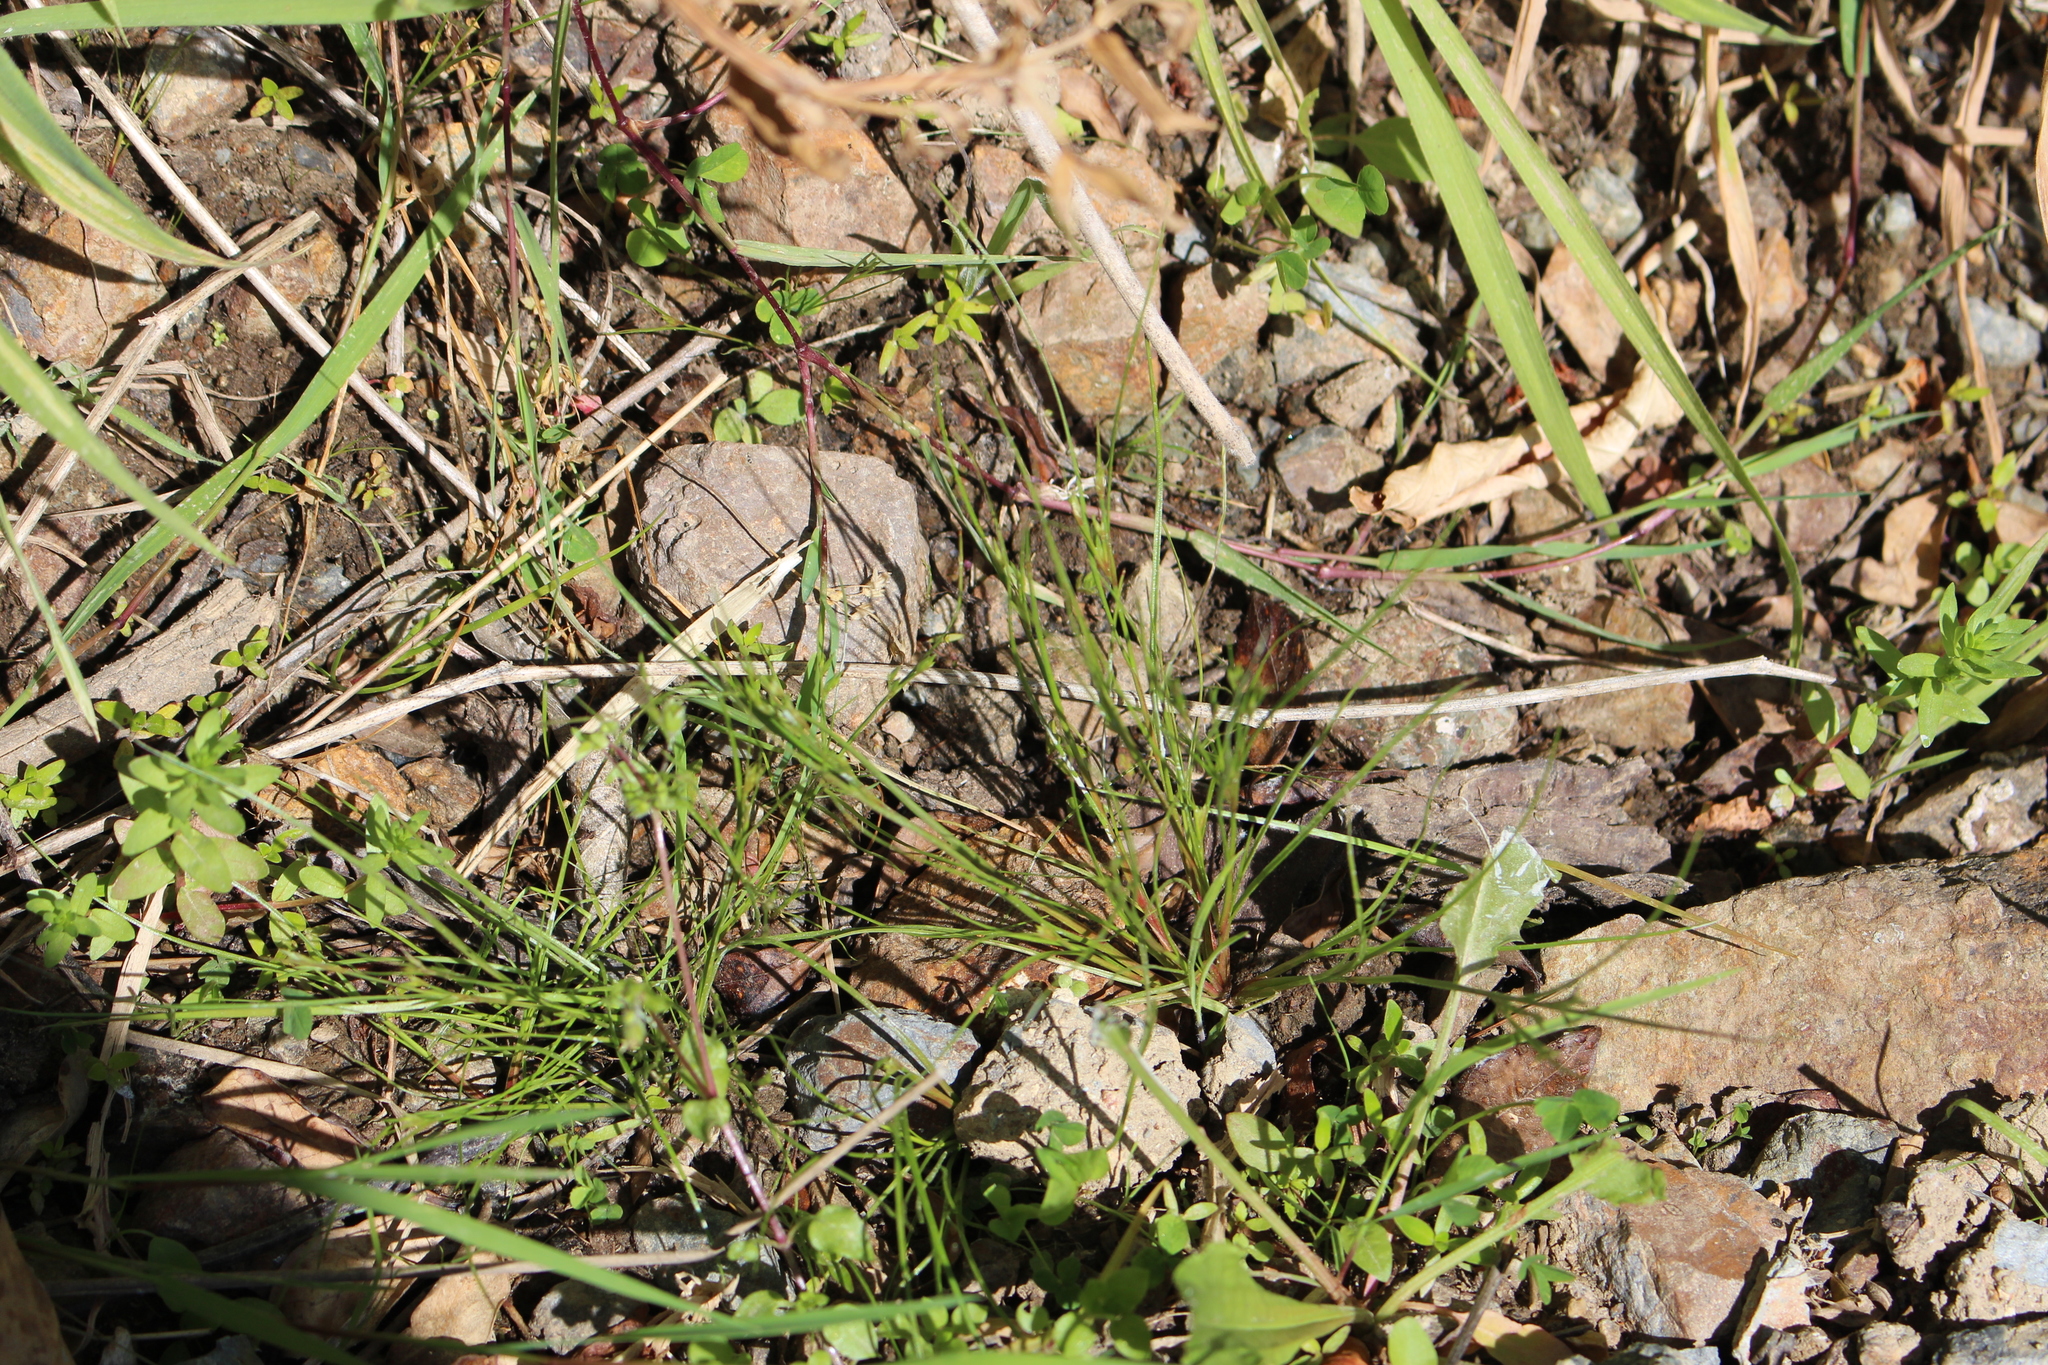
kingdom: Plantae
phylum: Tracheophyta
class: Liliopsida
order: Poales
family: Juncaceae
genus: Juncus
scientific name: Juncus bufonius
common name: Toad rush
